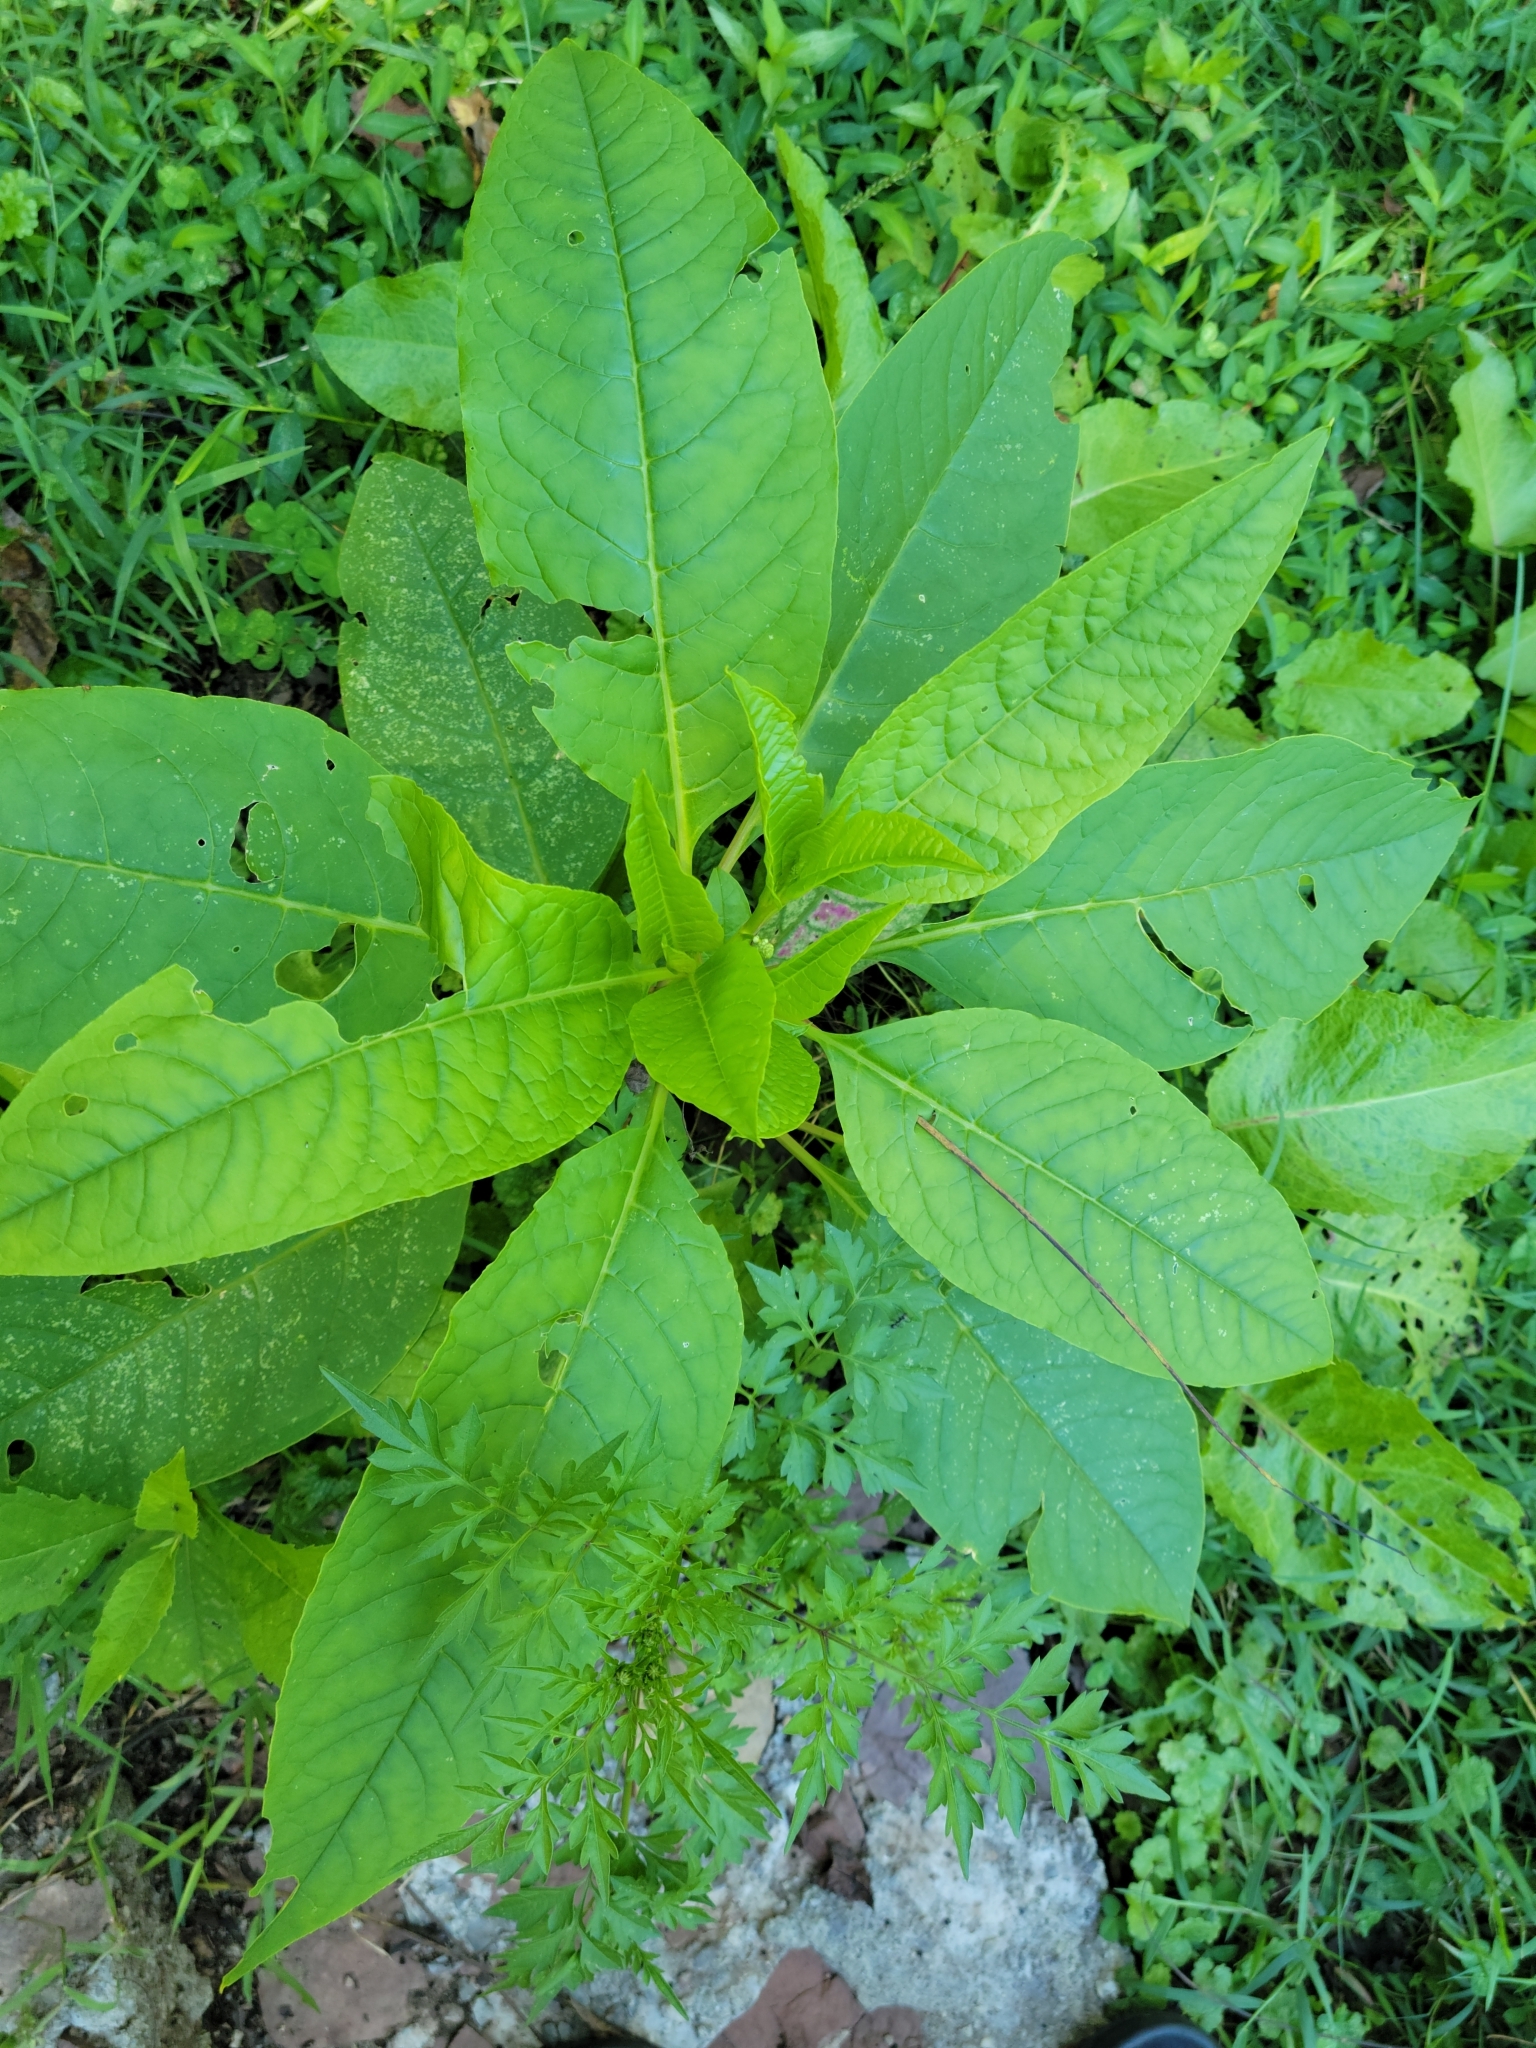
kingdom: Plantae
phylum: Tracheophyta
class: Magnoliopsida
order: Caryophyllales
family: Phytolaccaceae
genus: Phytolacca
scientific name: Phytolacca americana
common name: American pokeweed
